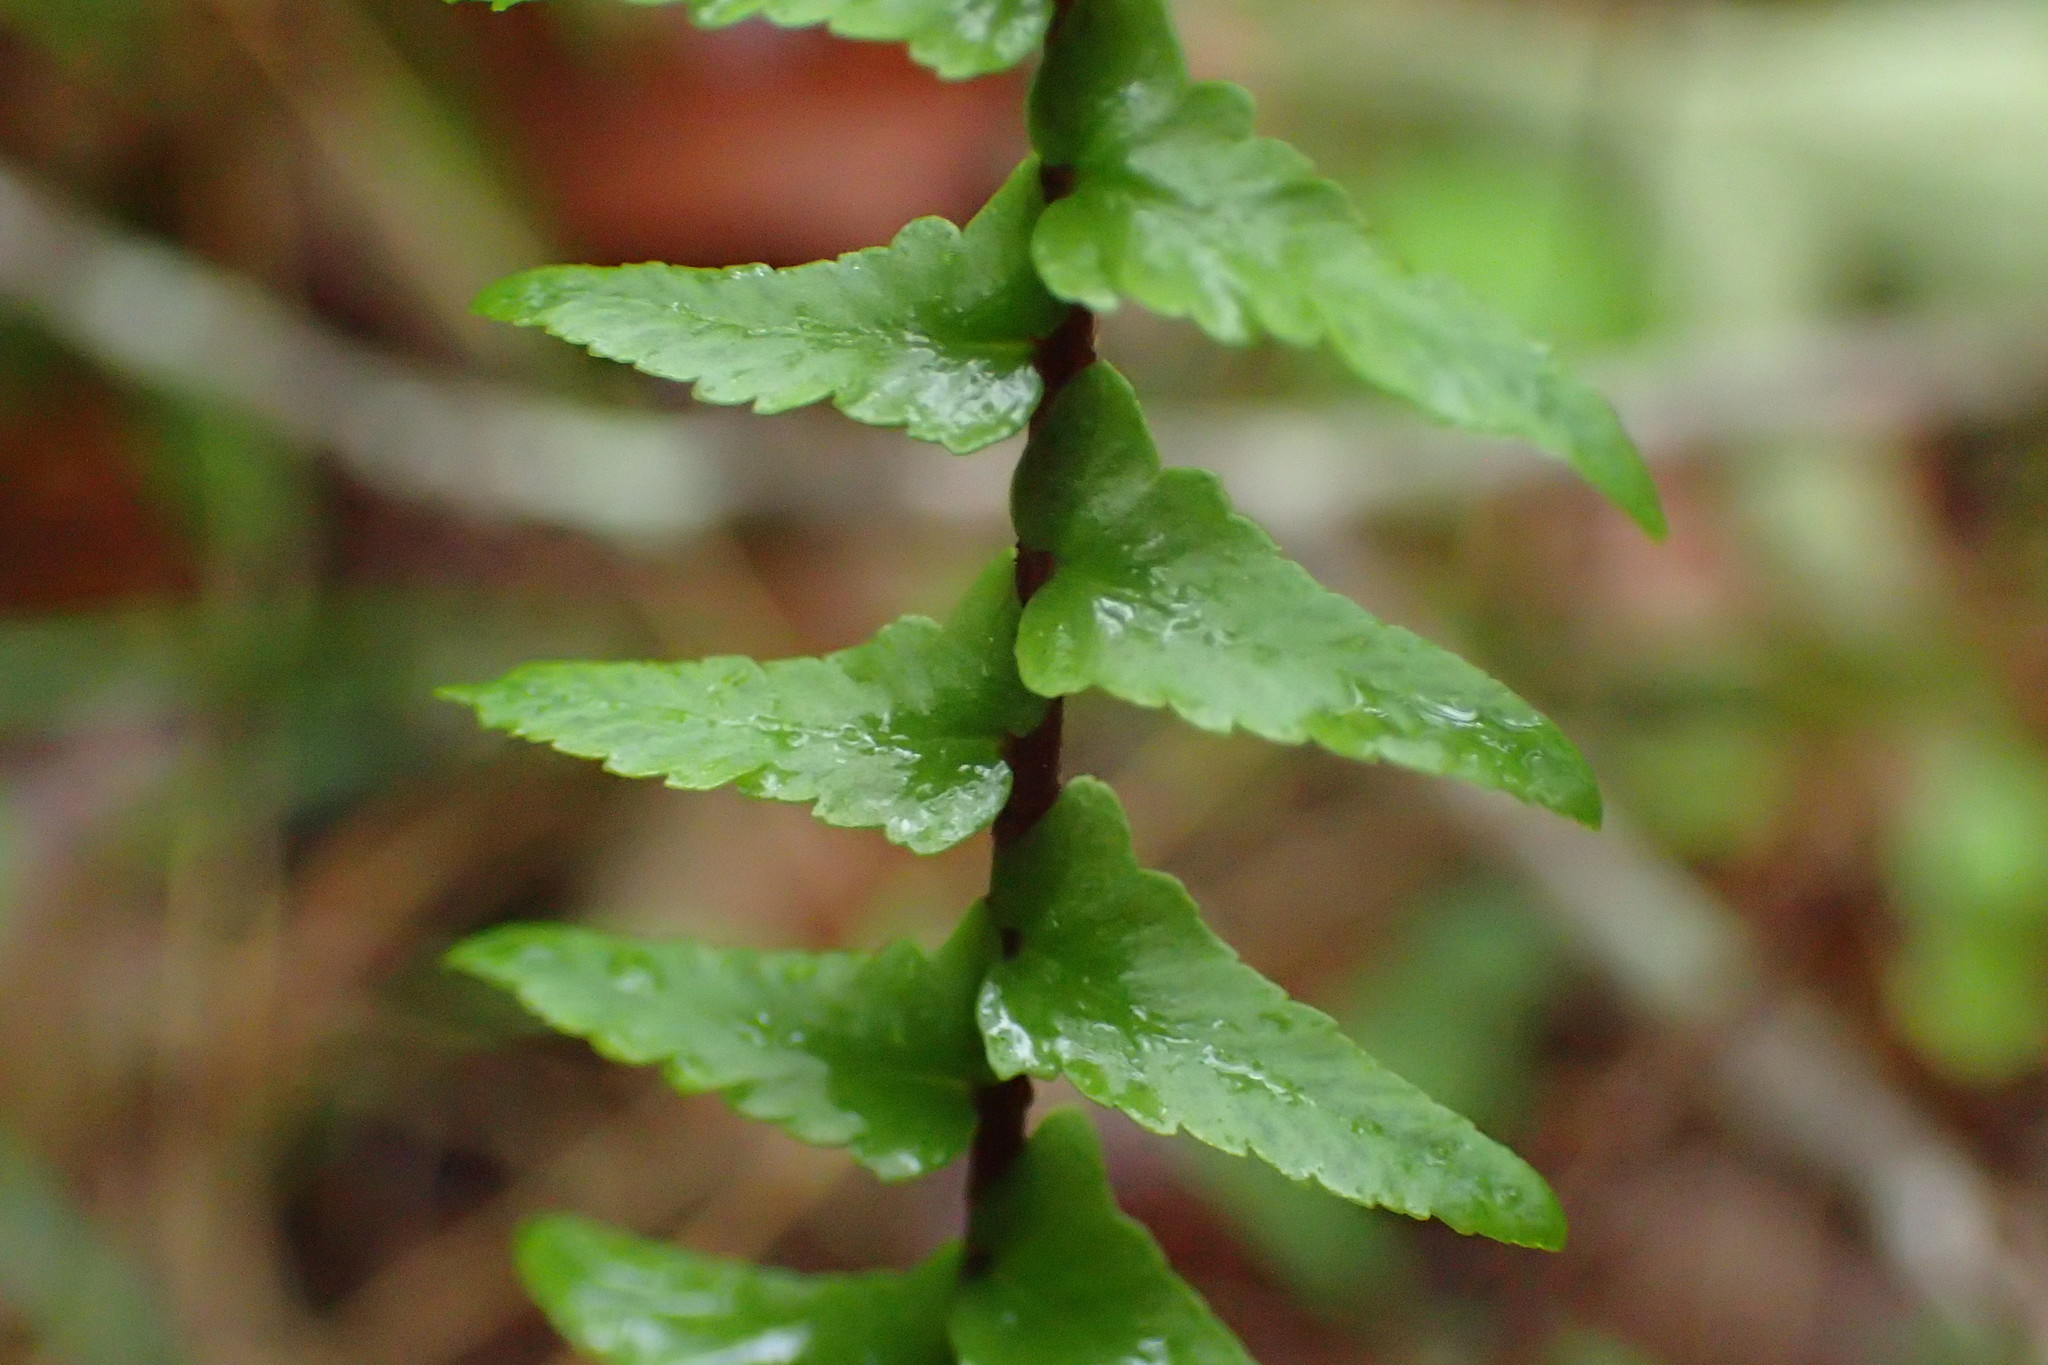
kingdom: Plantae
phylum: Tracheophyta
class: Polypodiopsida
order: Polypodiales
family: Aspleniaceae
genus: Asplenium
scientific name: Asplenium platyneuron
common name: Ebony spleenwort
